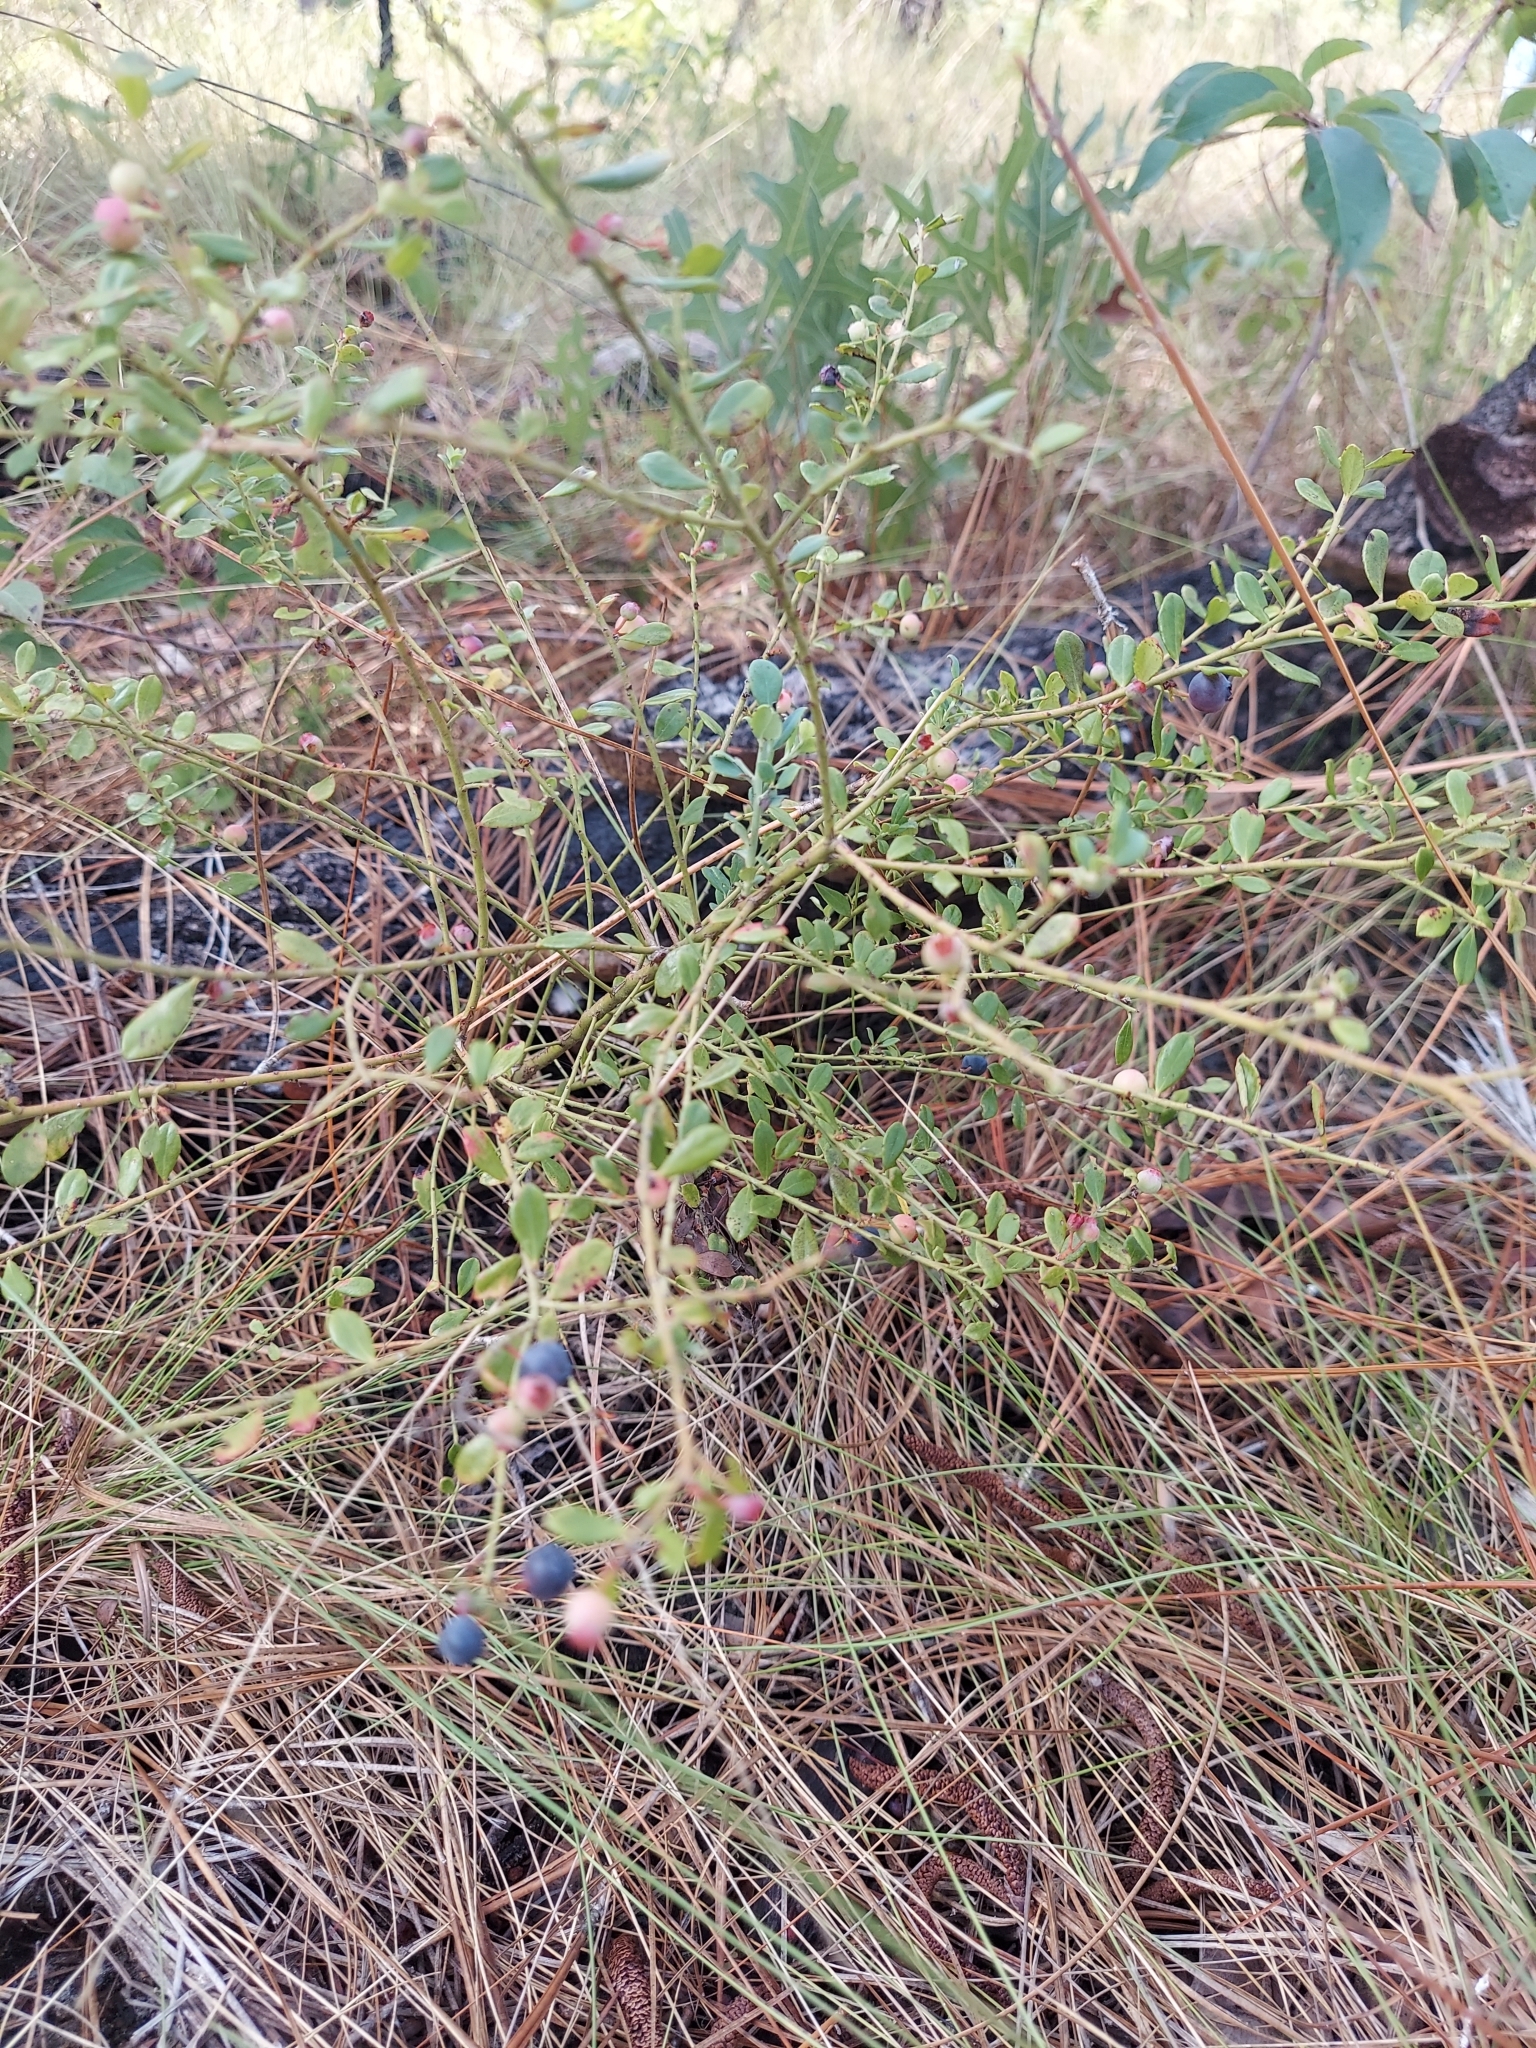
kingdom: Plantae
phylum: Tracheophyta
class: Magnoliopsida
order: Ericales
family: Ericaceae
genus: Vaccinium
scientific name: Vaccinium myrsinites
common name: Evergreen blueberry
